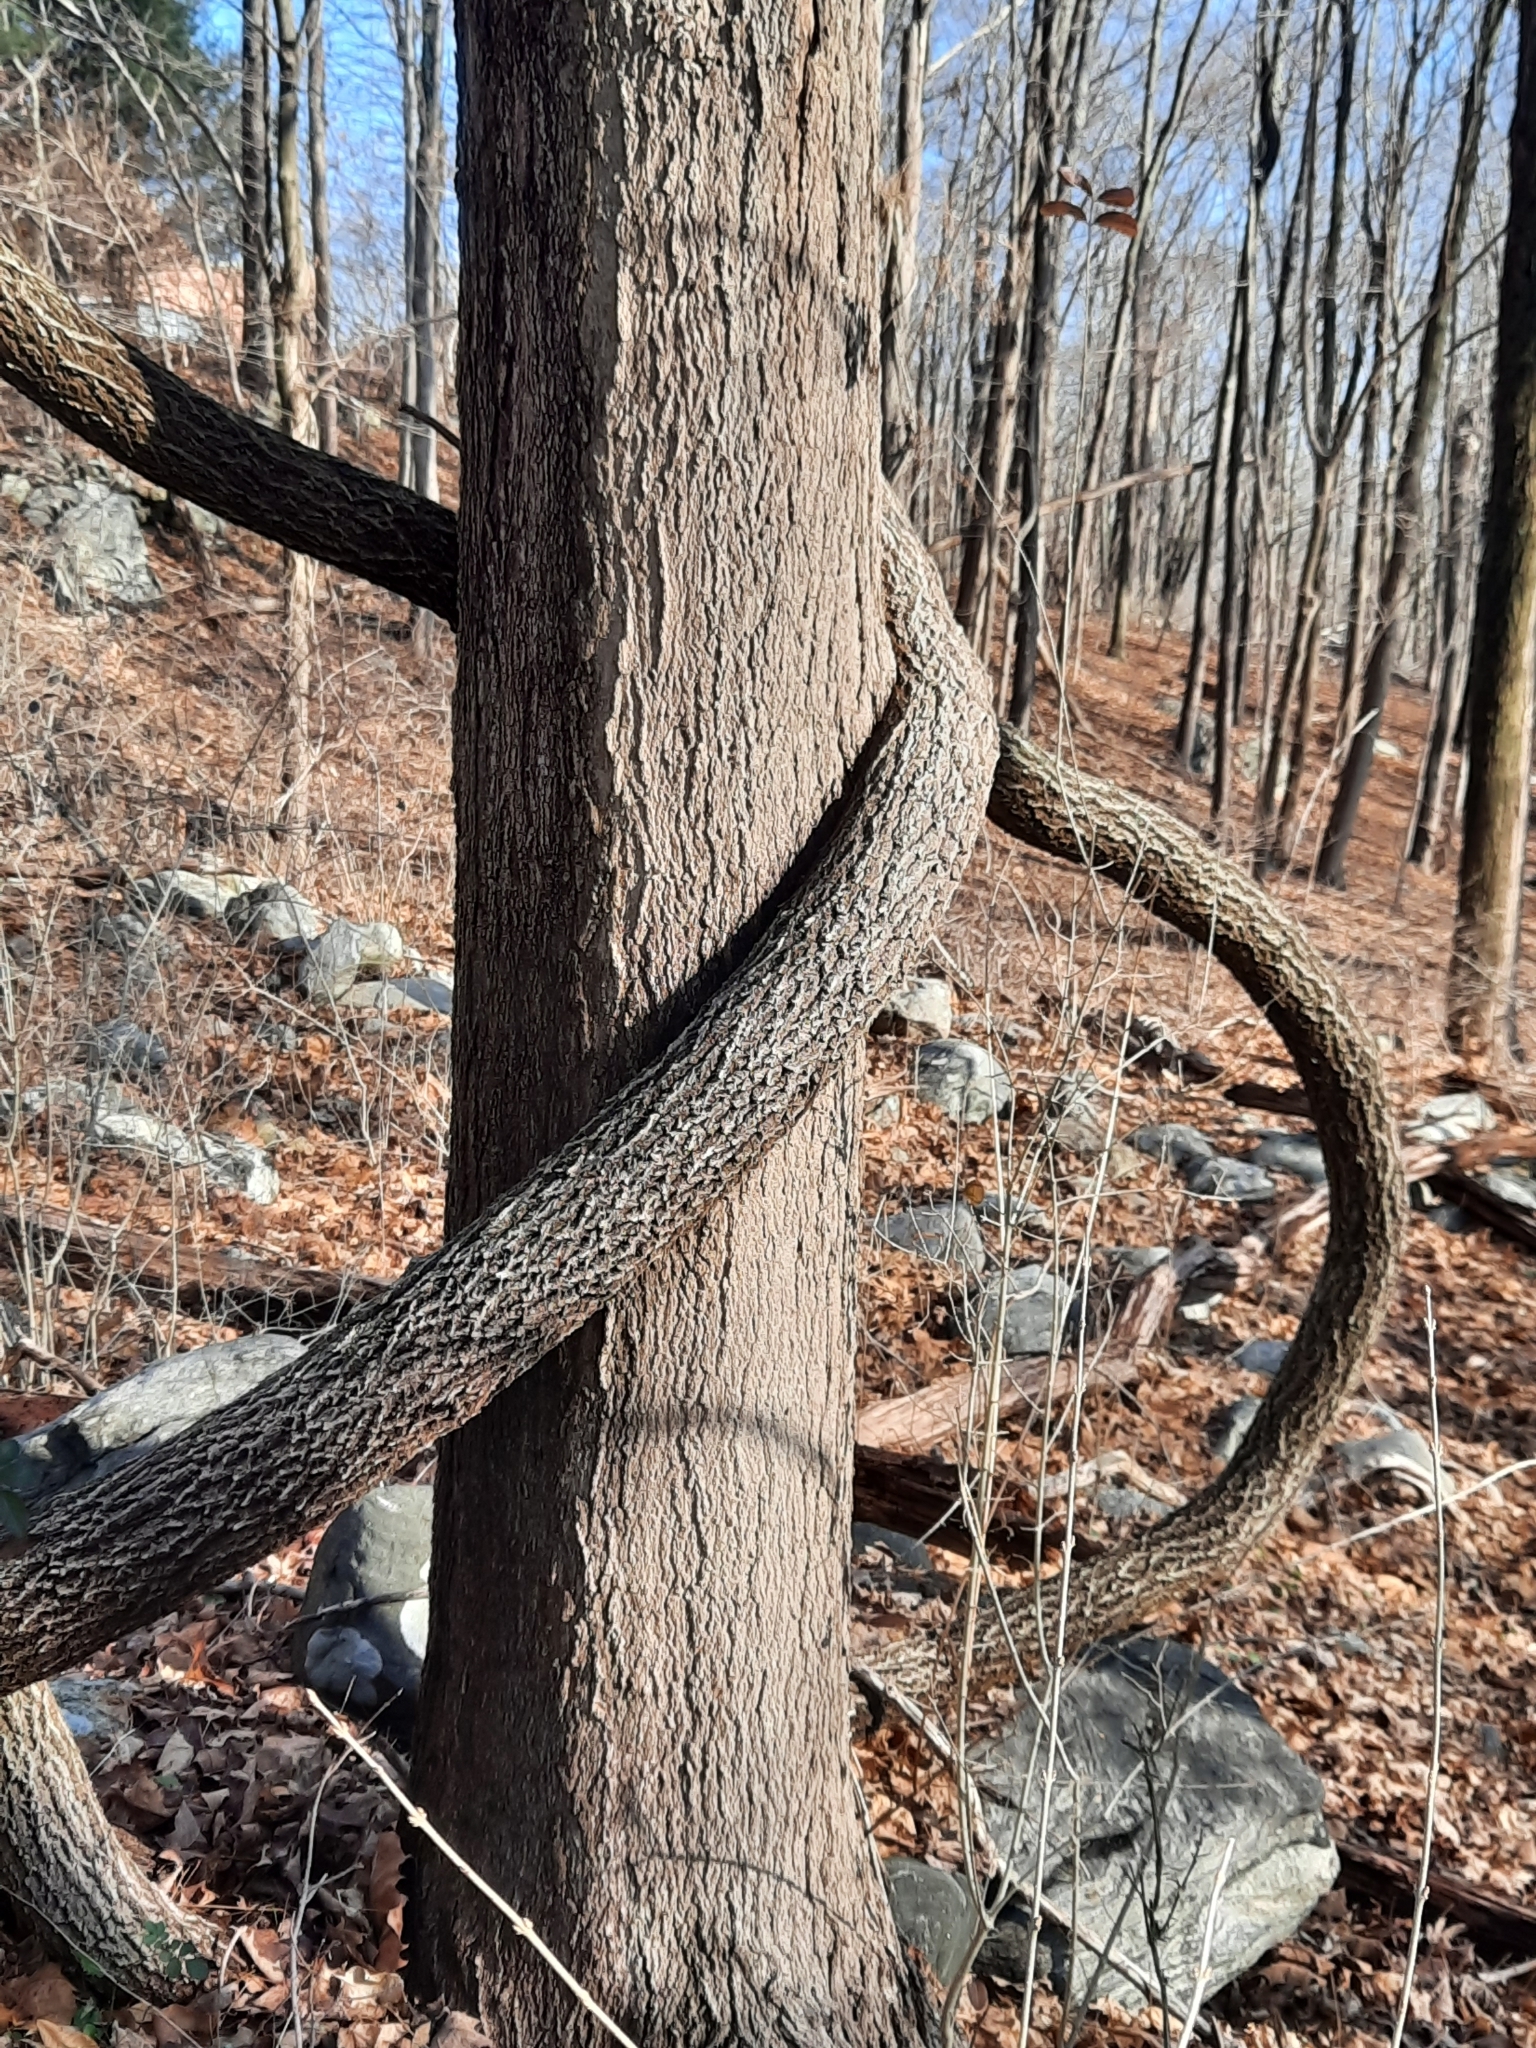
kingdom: Plantae
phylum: Tracheophyta
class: Magnoliopsida
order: Celastrales
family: Celastraceae
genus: Celastrus
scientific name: Celastrus orbiculatus
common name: Oriental bittersweet
